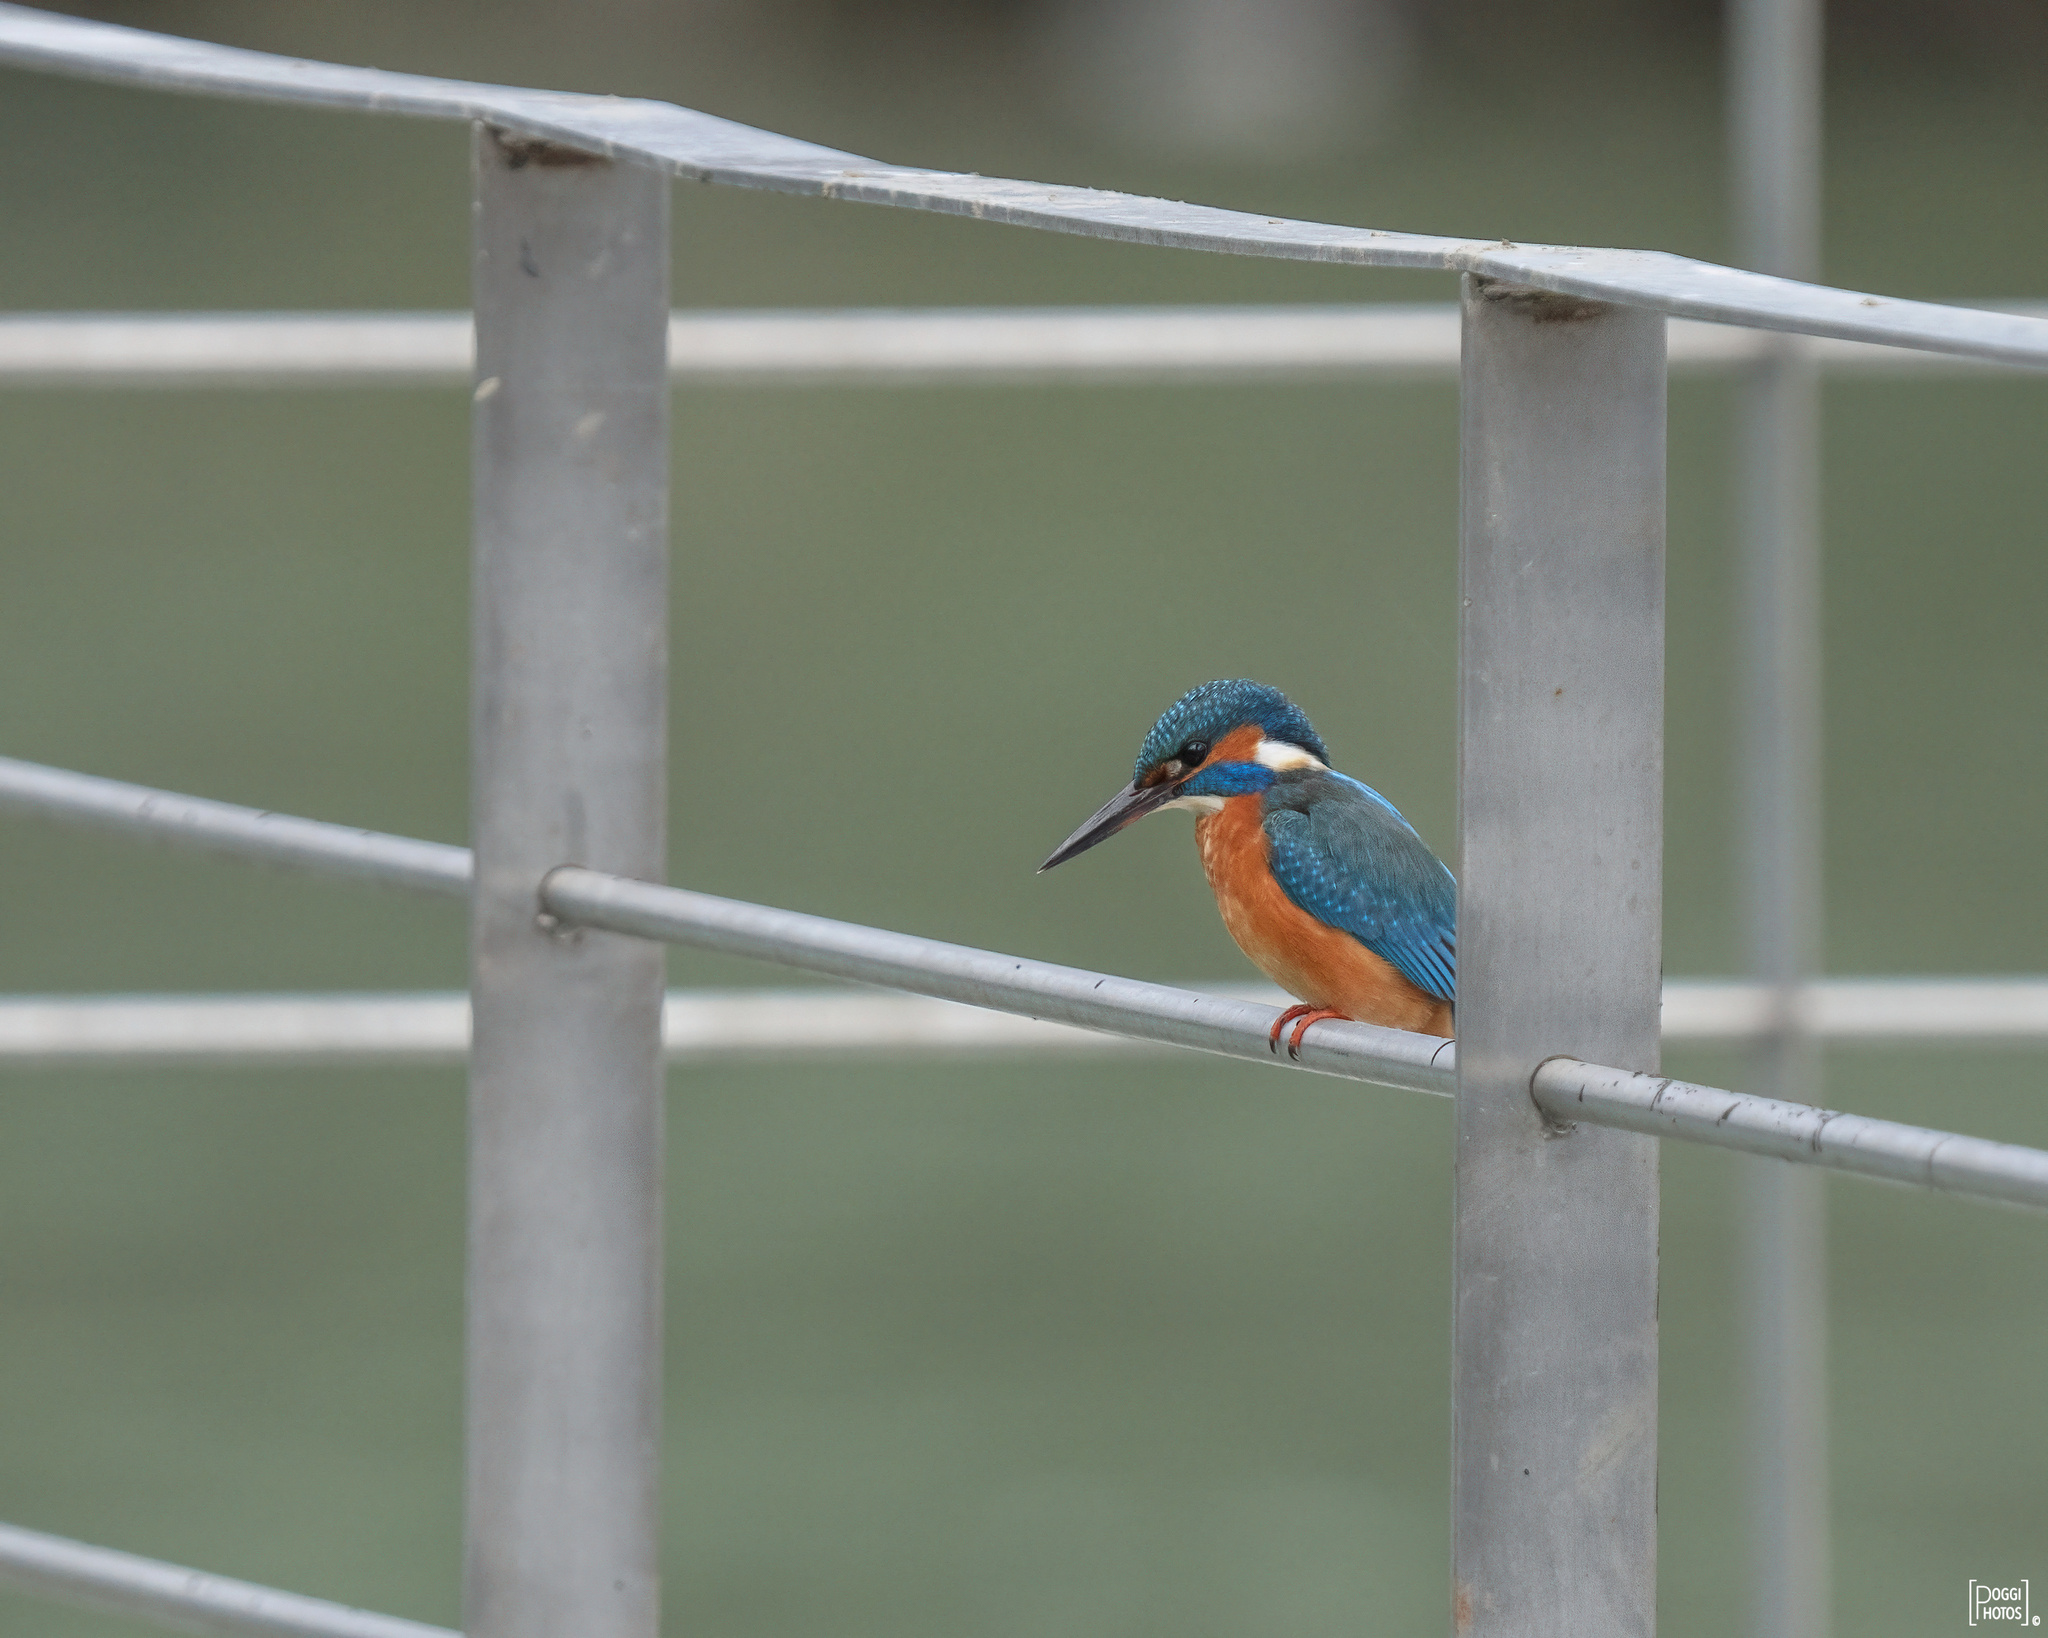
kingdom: Animalia
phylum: Chordata
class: Aves
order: Coraciiformes
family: Alcedinidae
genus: Alcedo
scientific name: Alcedo atthis
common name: Common kingfisher
